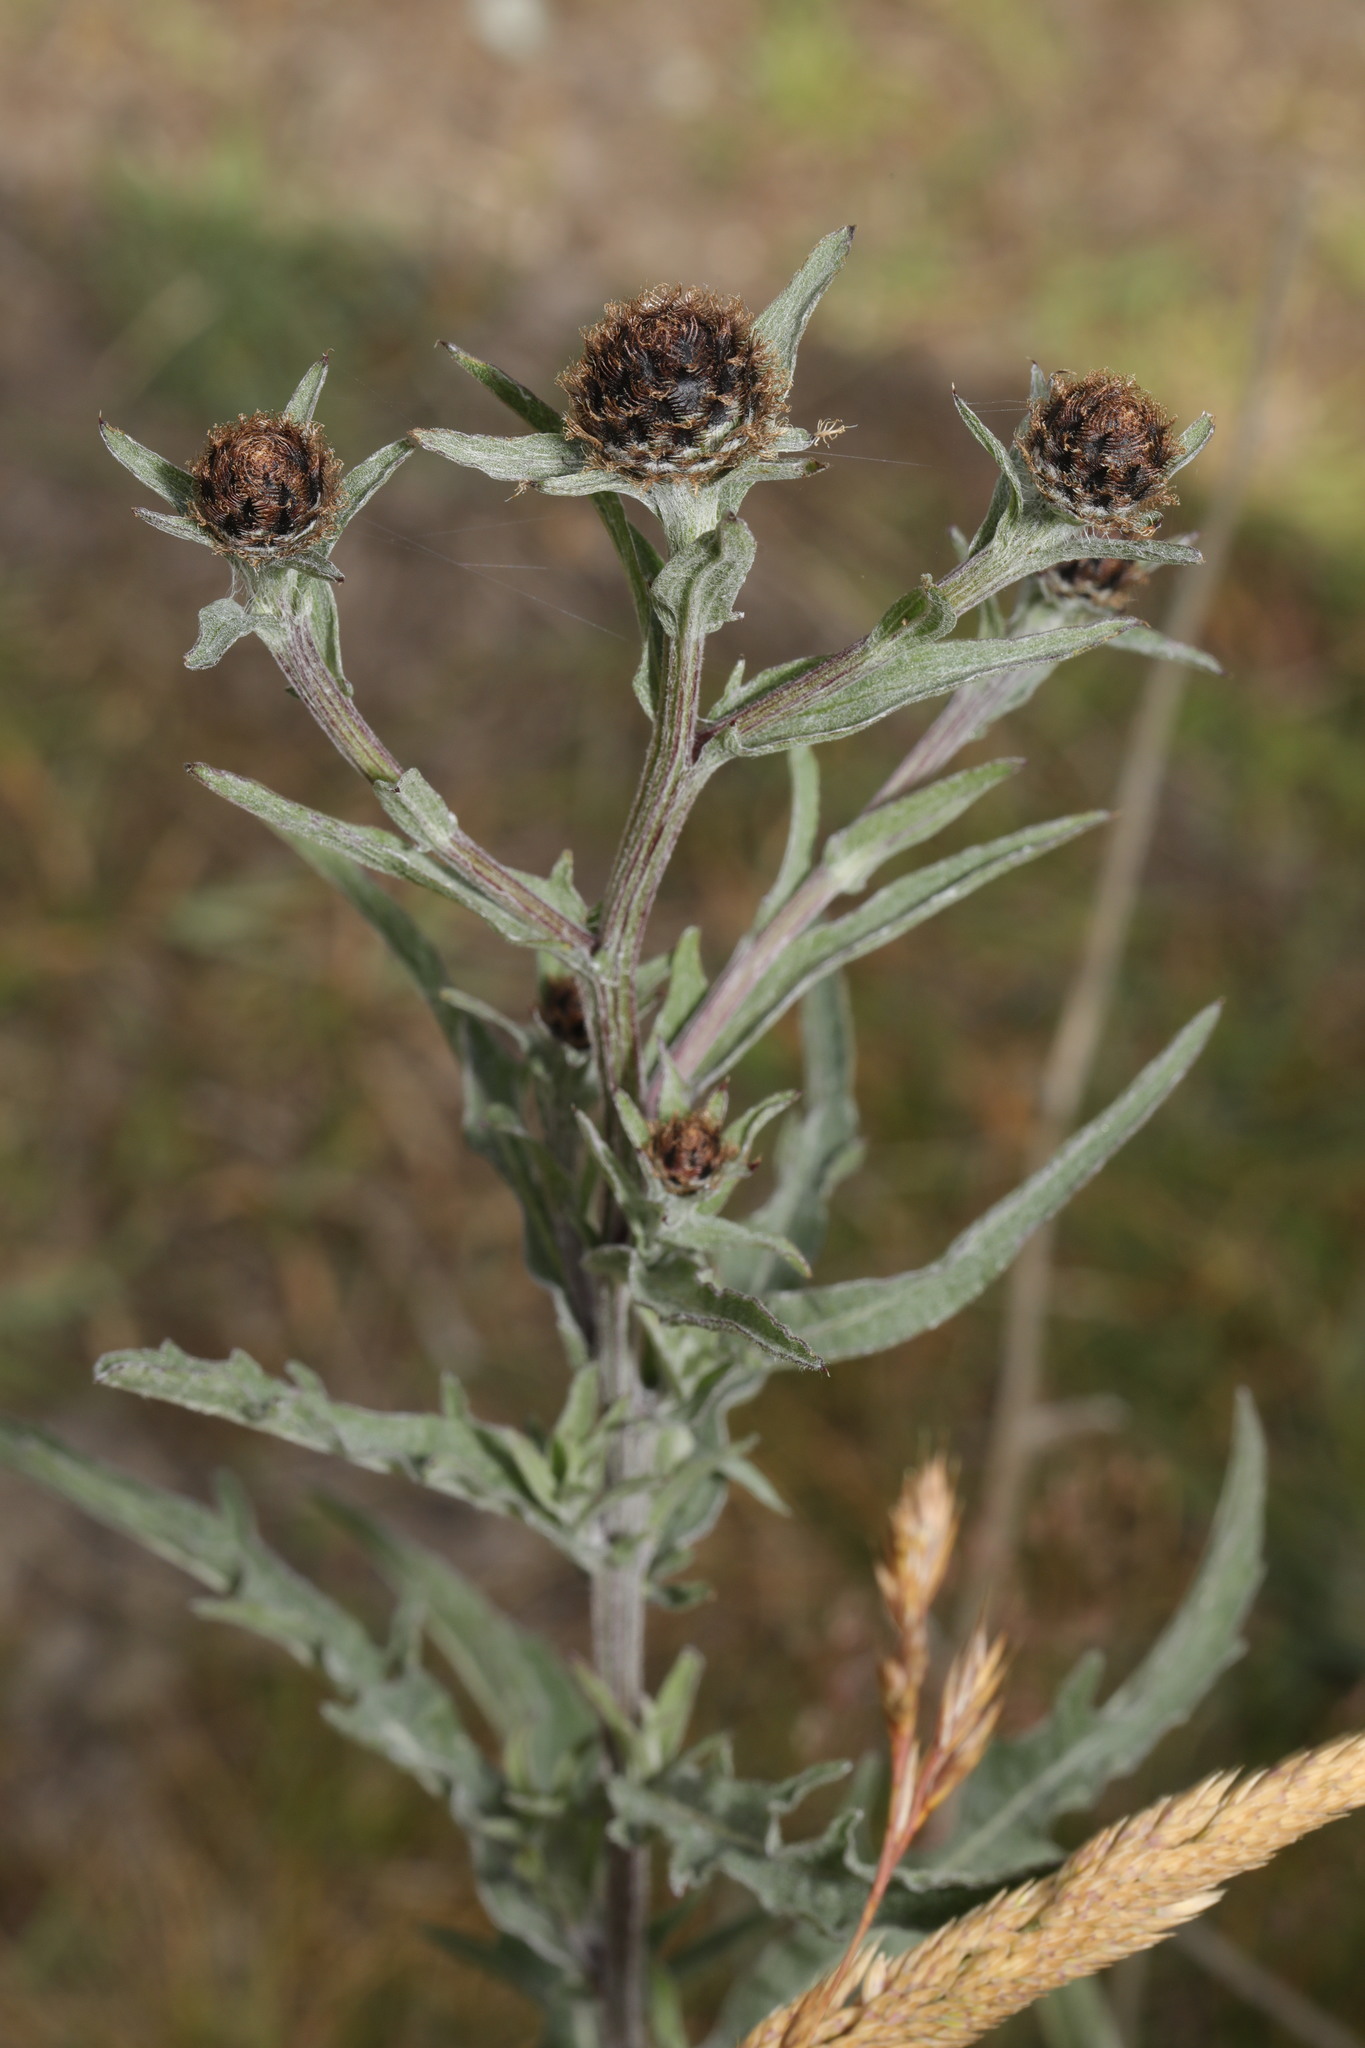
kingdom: Plantae
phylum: Tracheophyta
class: Magnoliopsida
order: Asterales
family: Asteraceae
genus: Centaurea
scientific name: Centaurea nigra
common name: Lesser knapweed
